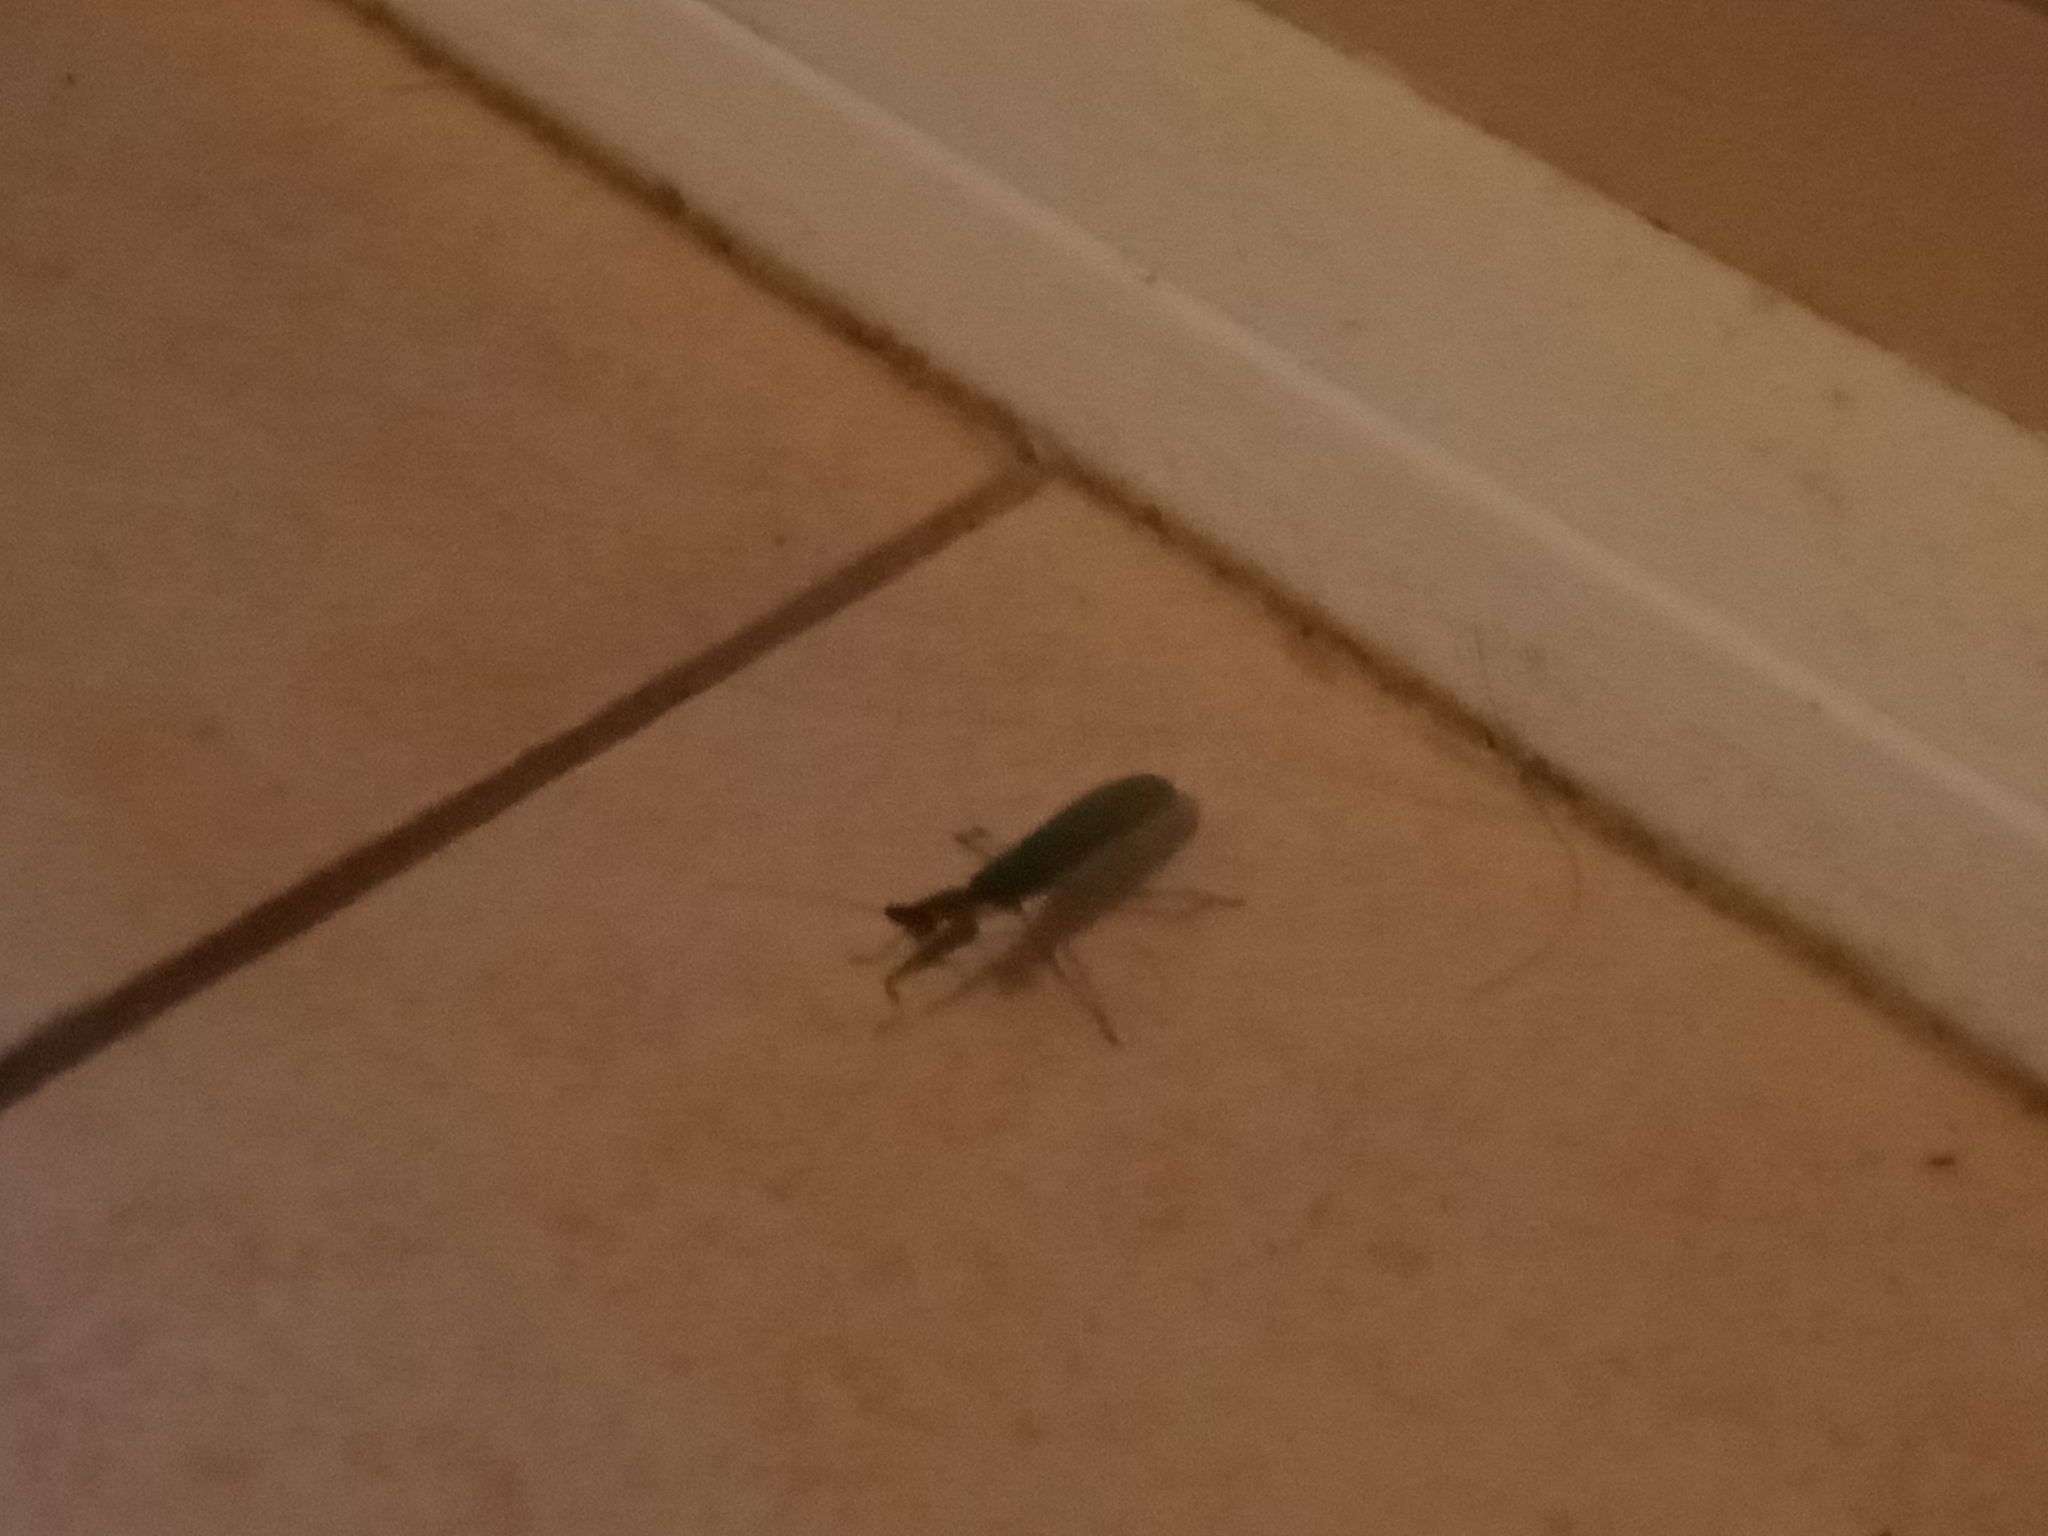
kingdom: Animalia
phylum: Arthropoda
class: Insecta
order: Mantodea
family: Mantidae
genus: Orthodera
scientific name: Orthodera ministralis
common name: Mantis
